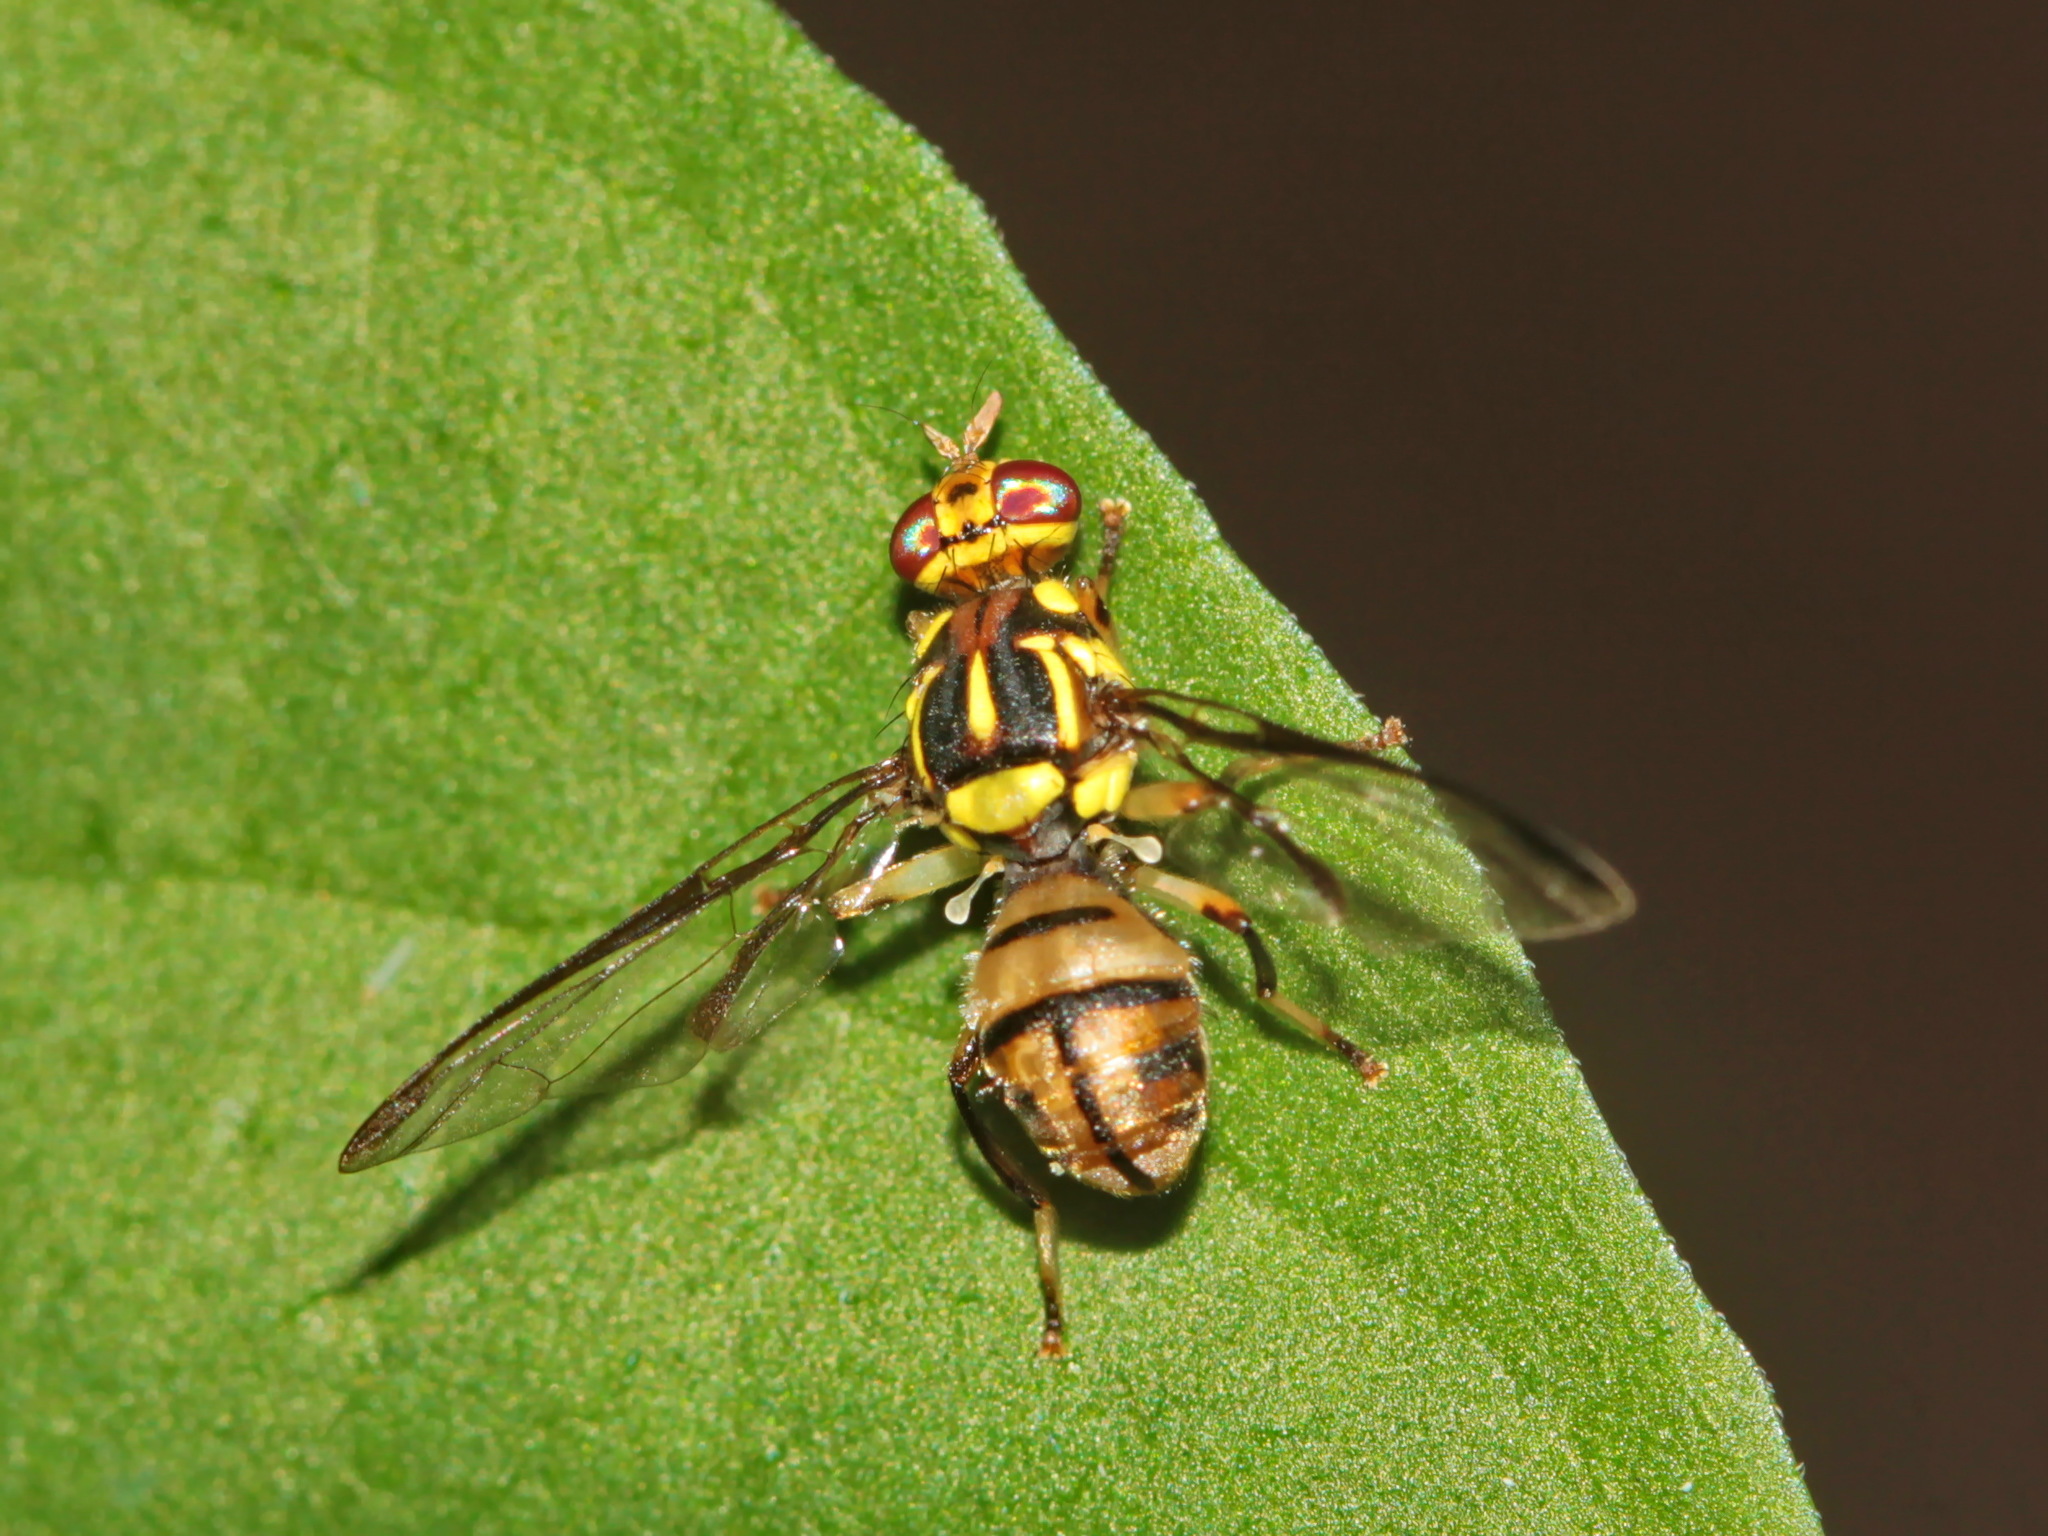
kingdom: Animalia
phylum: Arthropoda
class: Insecta
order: Diptera
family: Tephritidae
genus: Bactrocera
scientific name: Bactrocera tau
